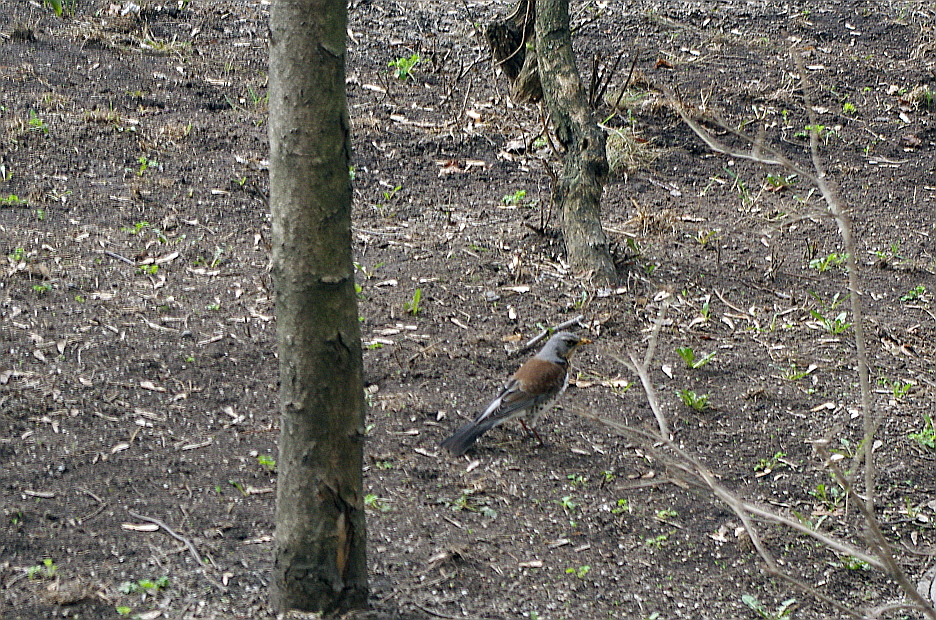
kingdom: Animalia
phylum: Chordata
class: Aves
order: Passeriformes
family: Turdidae
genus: Turdus
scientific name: Turdus pilaris
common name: Fieldfare
